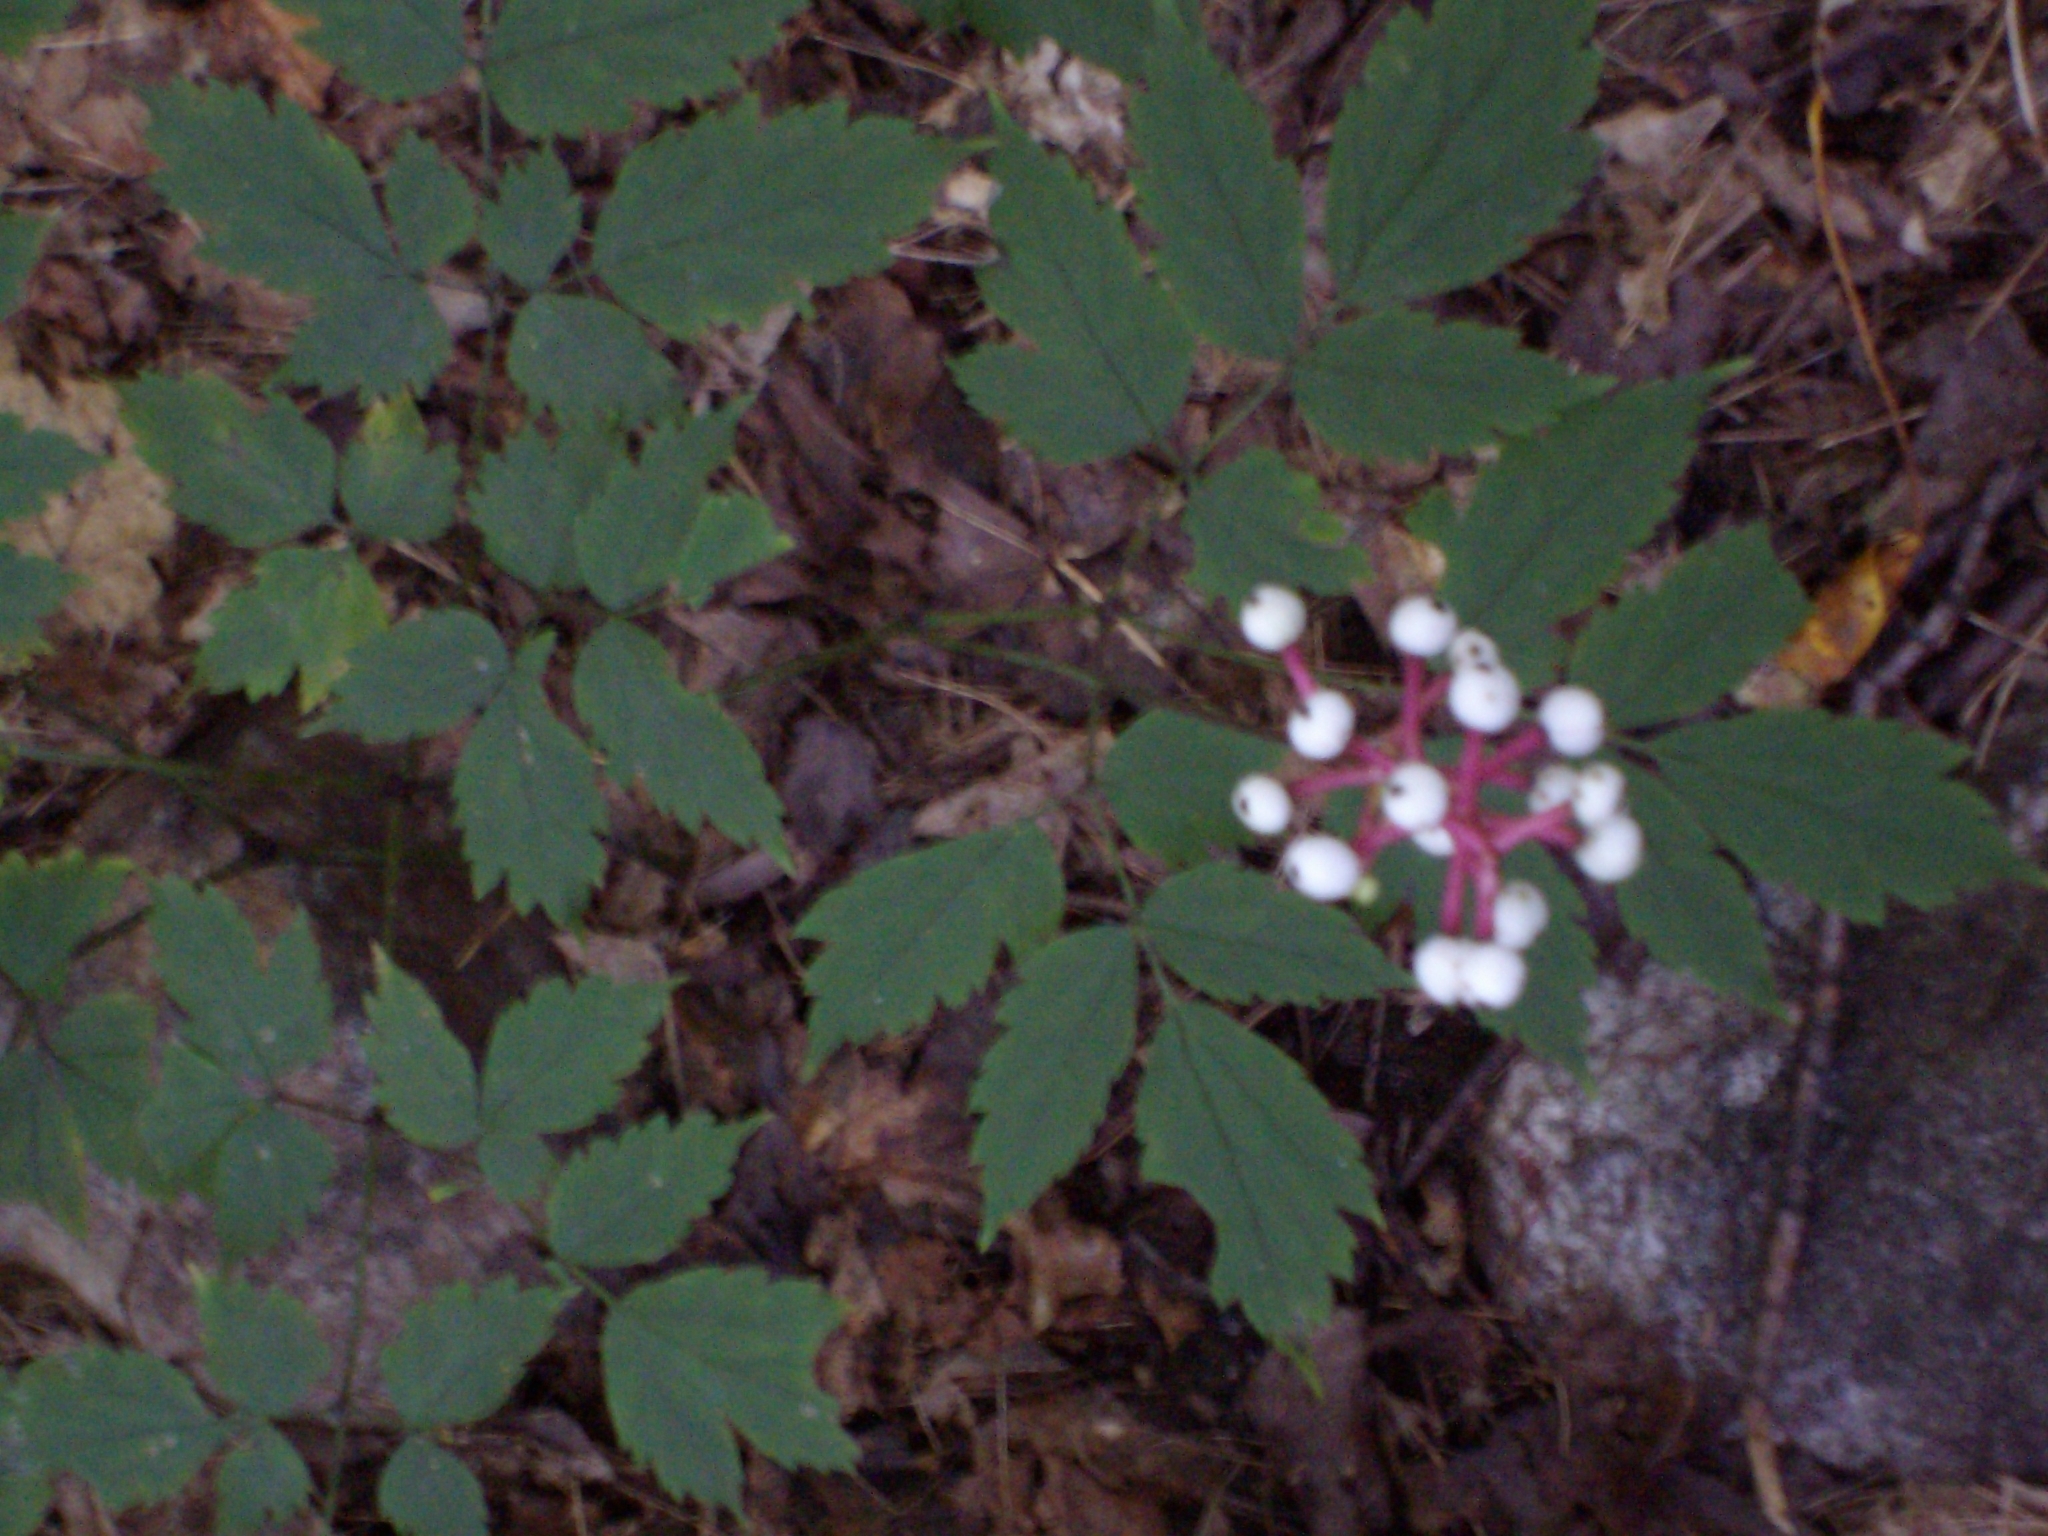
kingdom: Plantae
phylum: Tracheophyta
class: Magnoliopsida
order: Ranunculales
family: Ranunculaceae
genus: Actaea
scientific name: Actaea pachypoda
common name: Doll's-eyes
